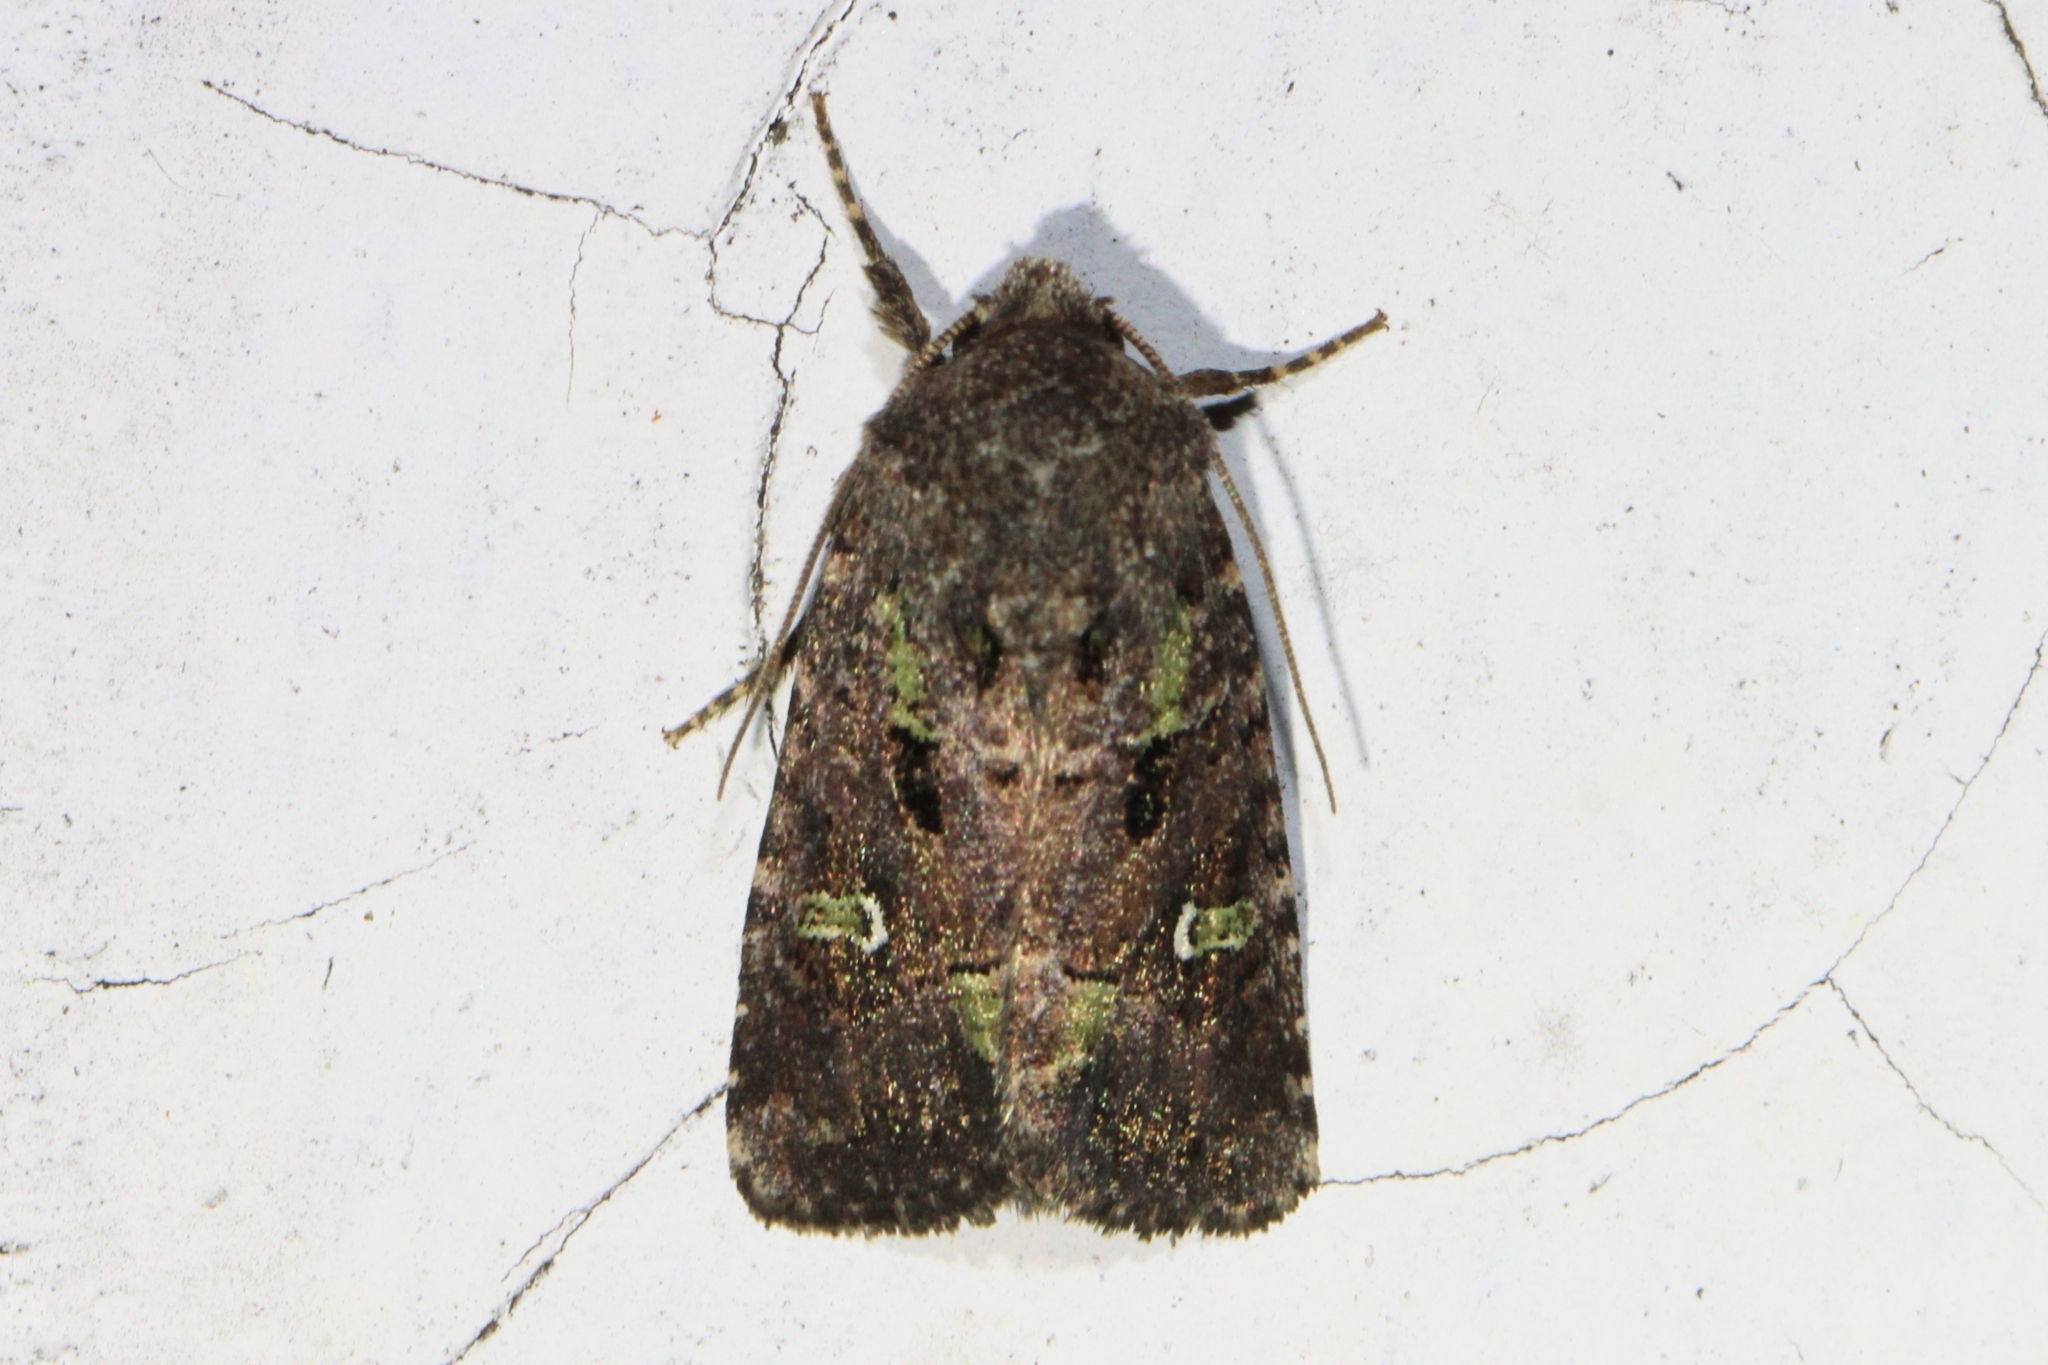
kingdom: Animalia
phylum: Arthropoda
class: Insecta
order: Lepidoptera
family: Noctuidae
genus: Lacinipolia
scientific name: Lacinipolia renigera
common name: Kidney-spotted minor
